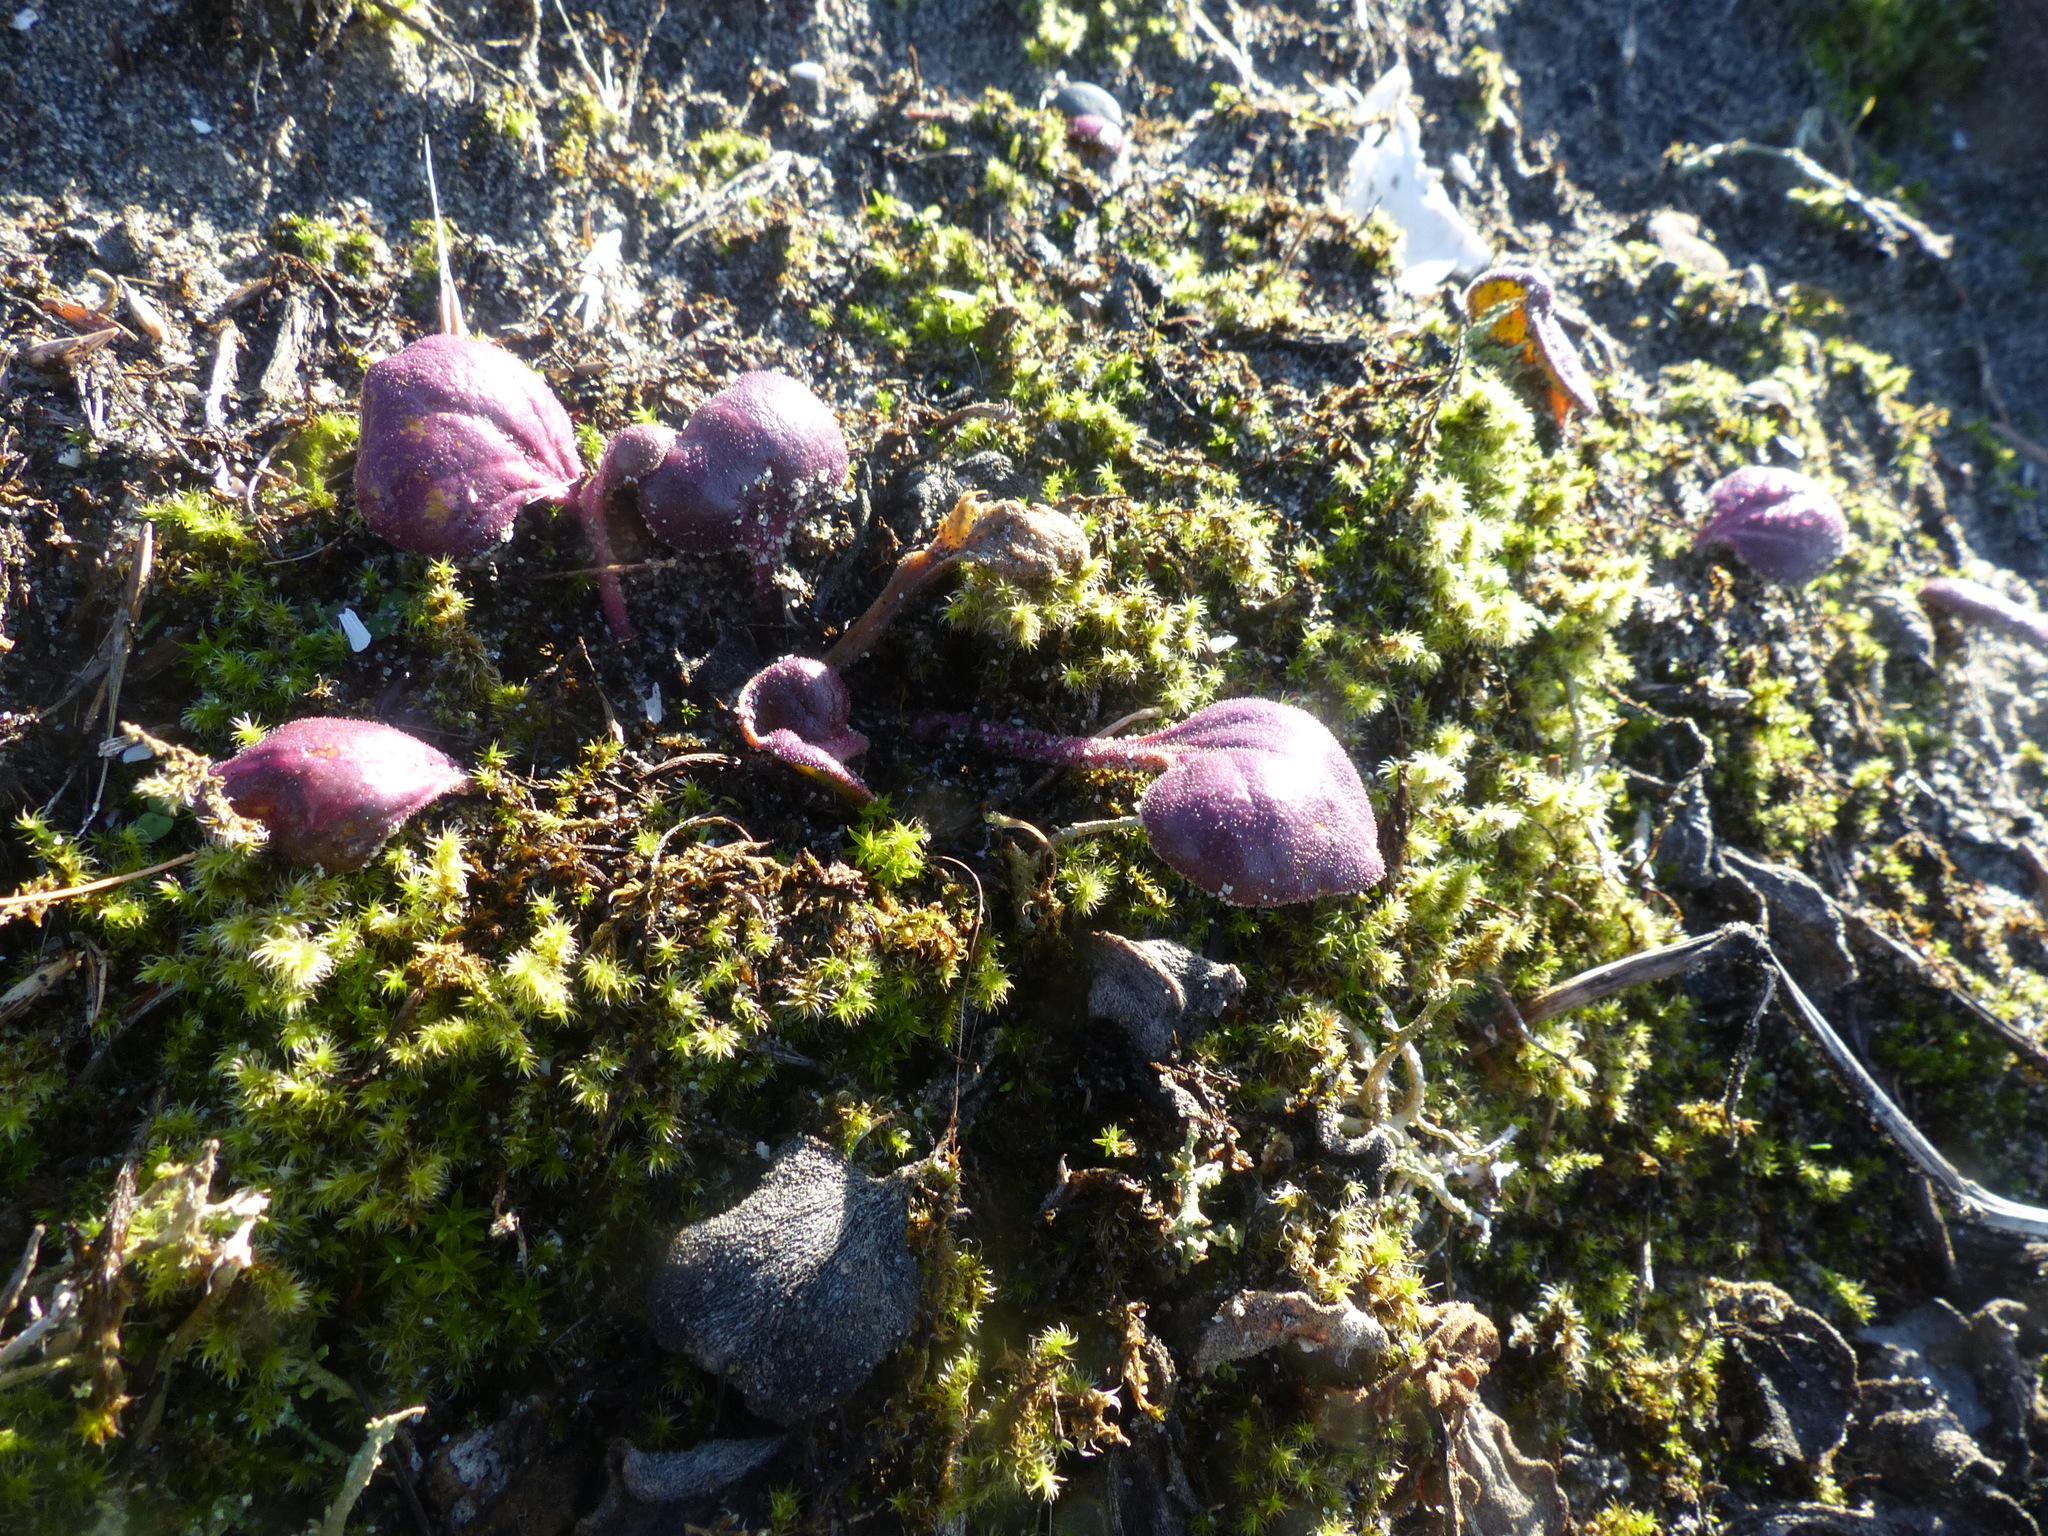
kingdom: Plantae
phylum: Tracheophyta
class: Magnoliopsida
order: Caryophyllales
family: Nyctaginaceae
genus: Abronia
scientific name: Abronia latifolia
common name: Yellow sand-verbena
